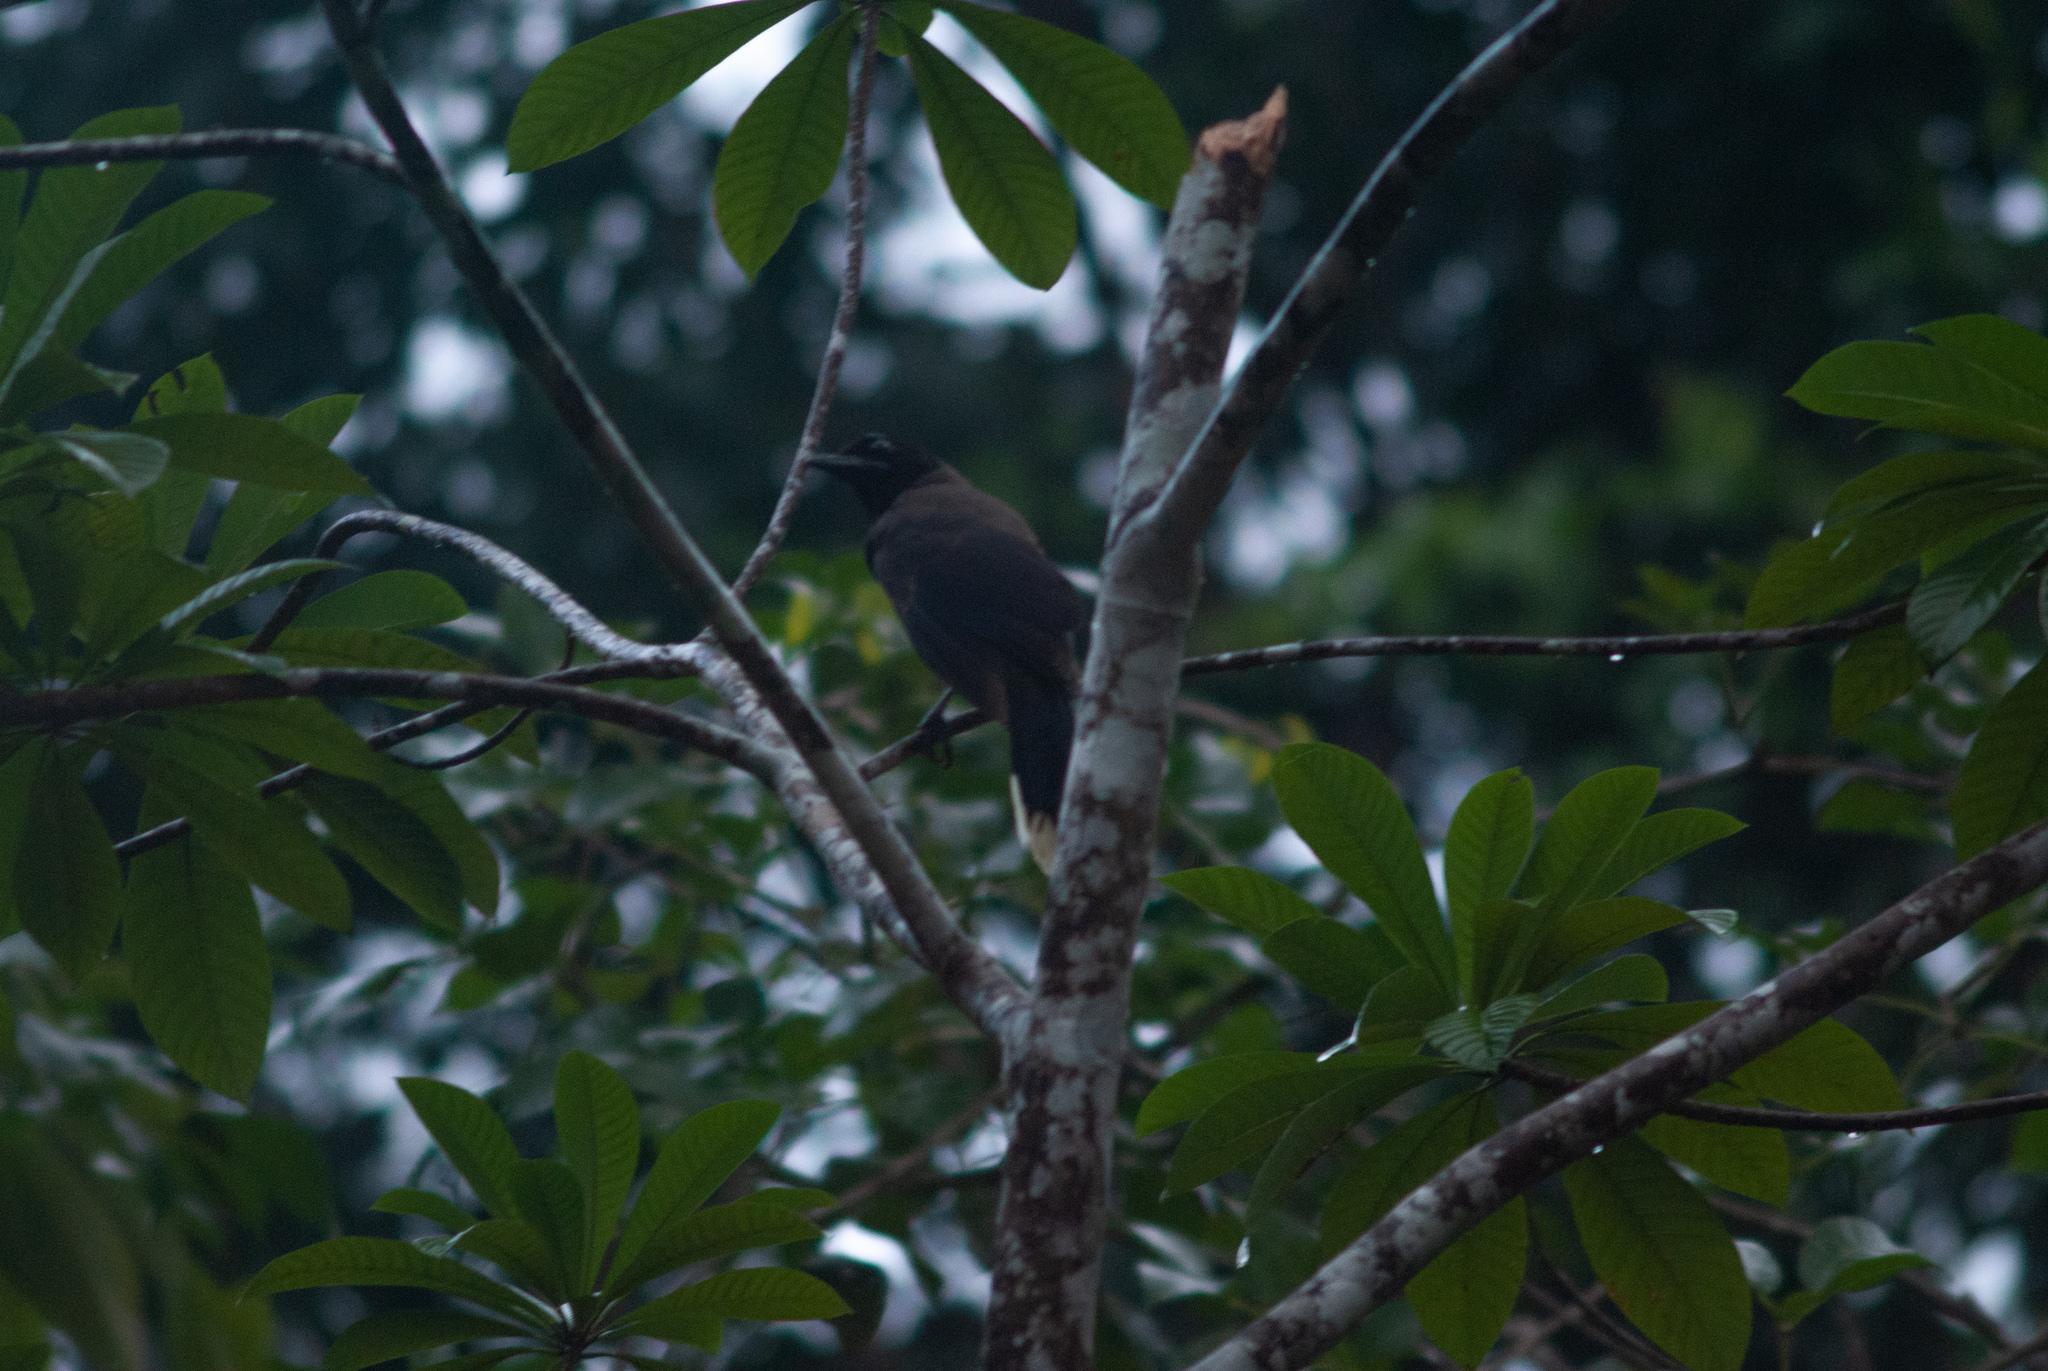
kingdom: Animalia
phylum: Chordata
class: Aves
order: Passeriformes
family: Corvidae
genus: Cyanocorax
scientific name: Cyanocorax affinis
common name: Black-chested jay
